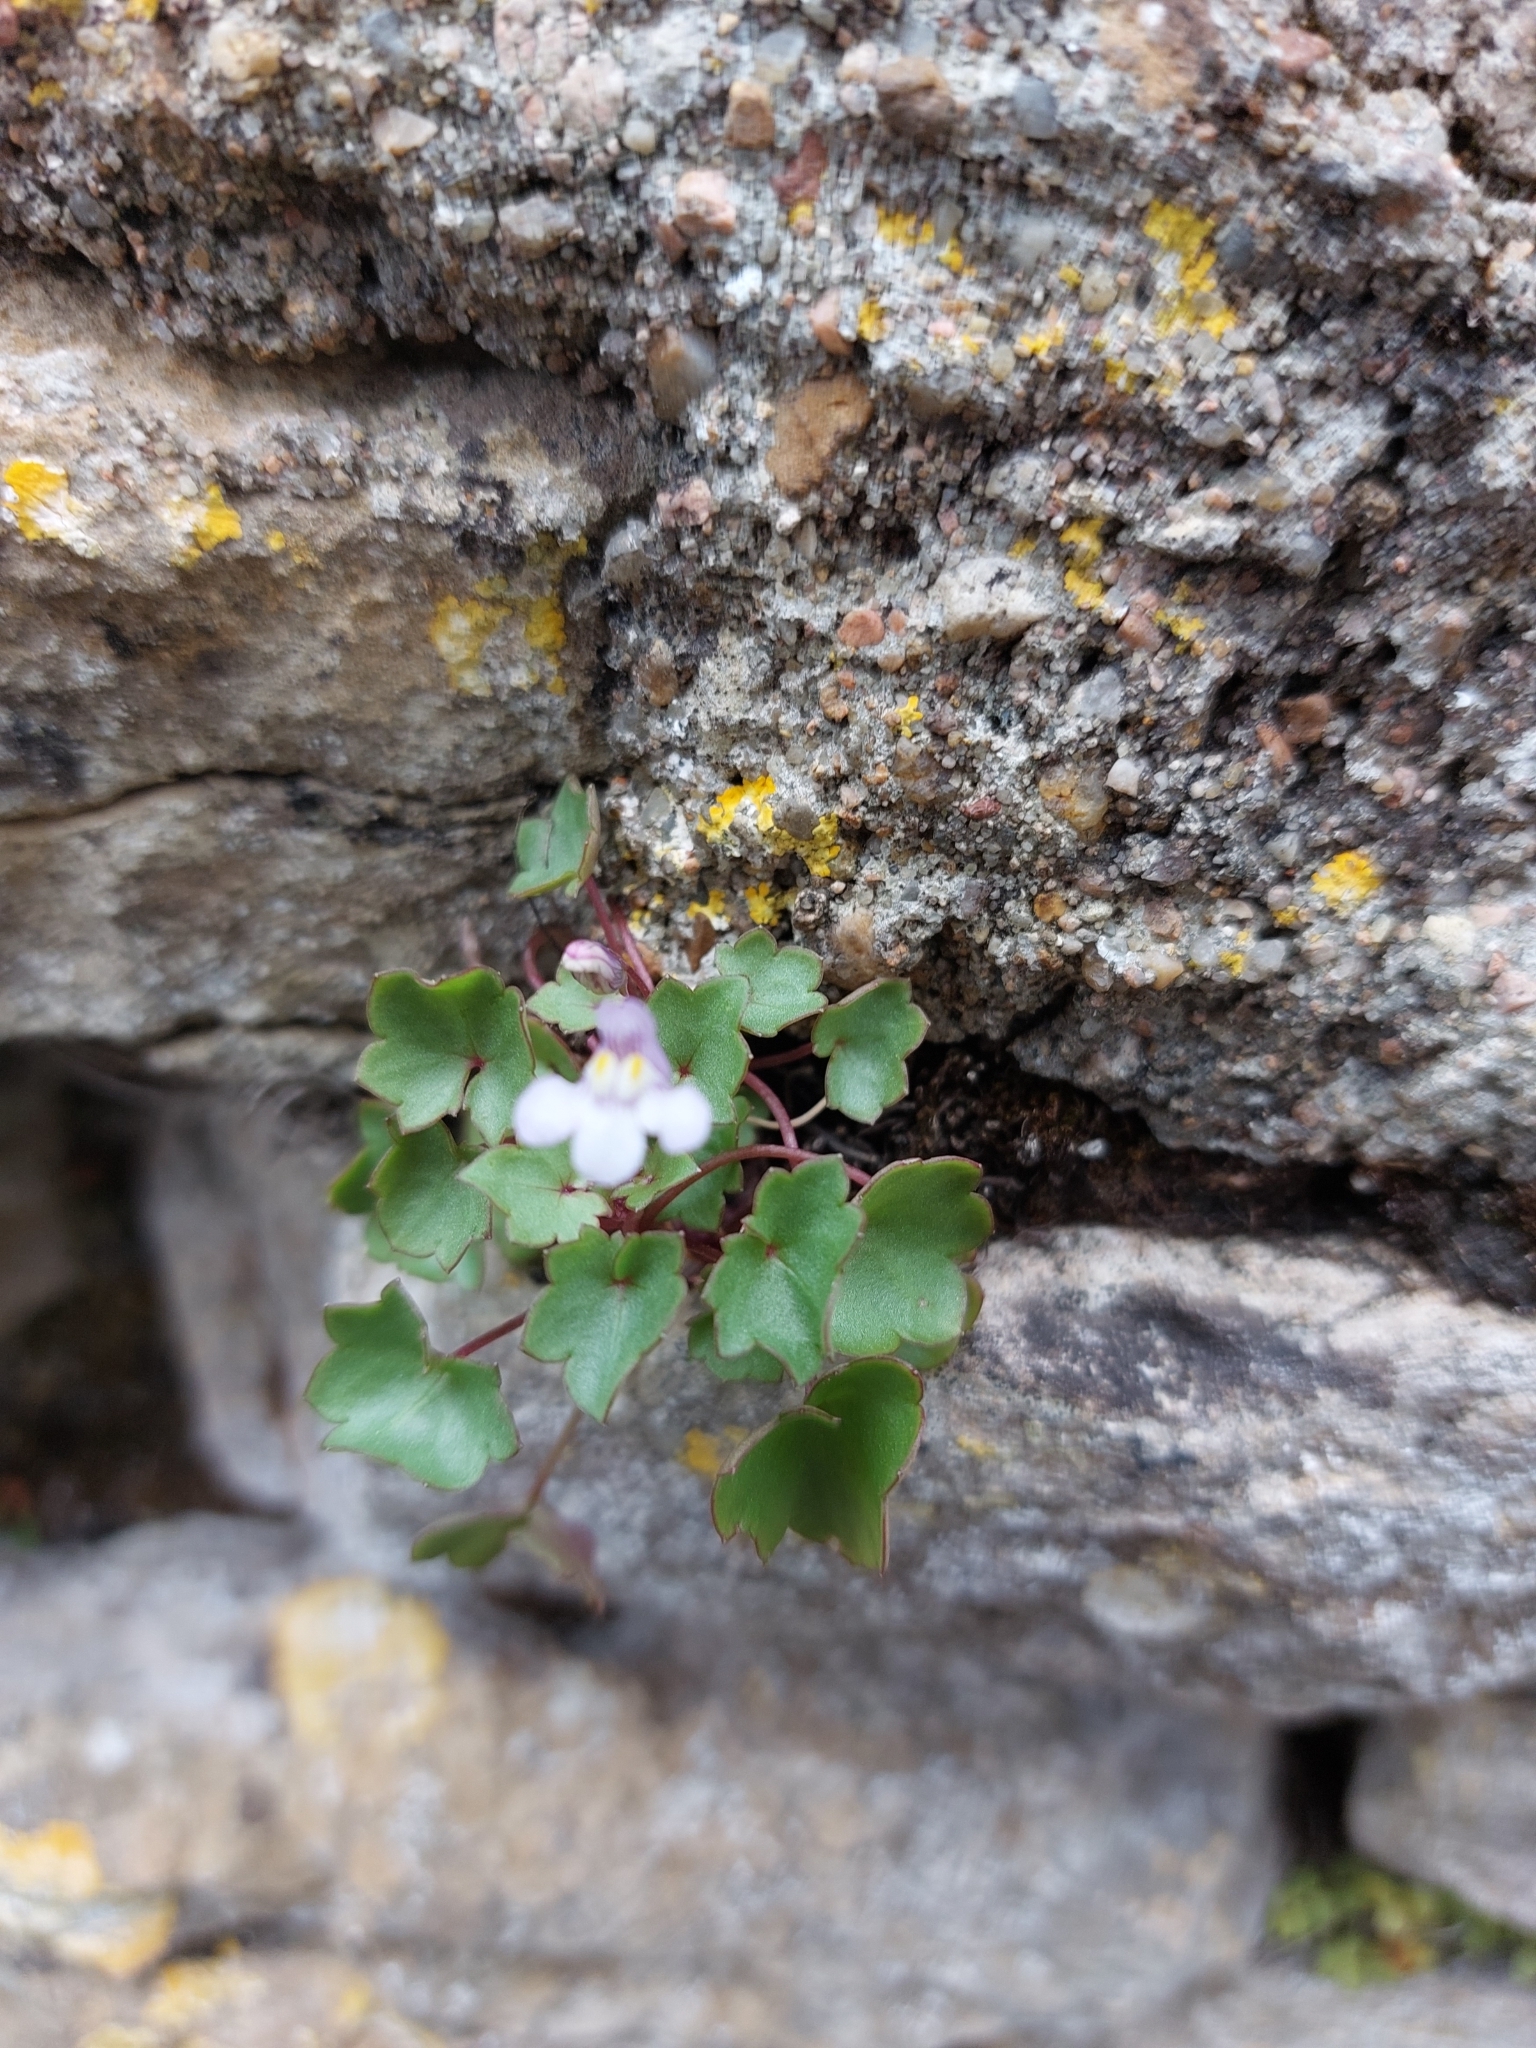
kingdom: Plantae
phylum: Tracheophyta
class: Magnoliopsida
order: Lamiales
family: Plantaginaceae
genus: Cymbalaria
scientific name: Cymbalaria muralis
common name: Ivy-leaved toadflax
